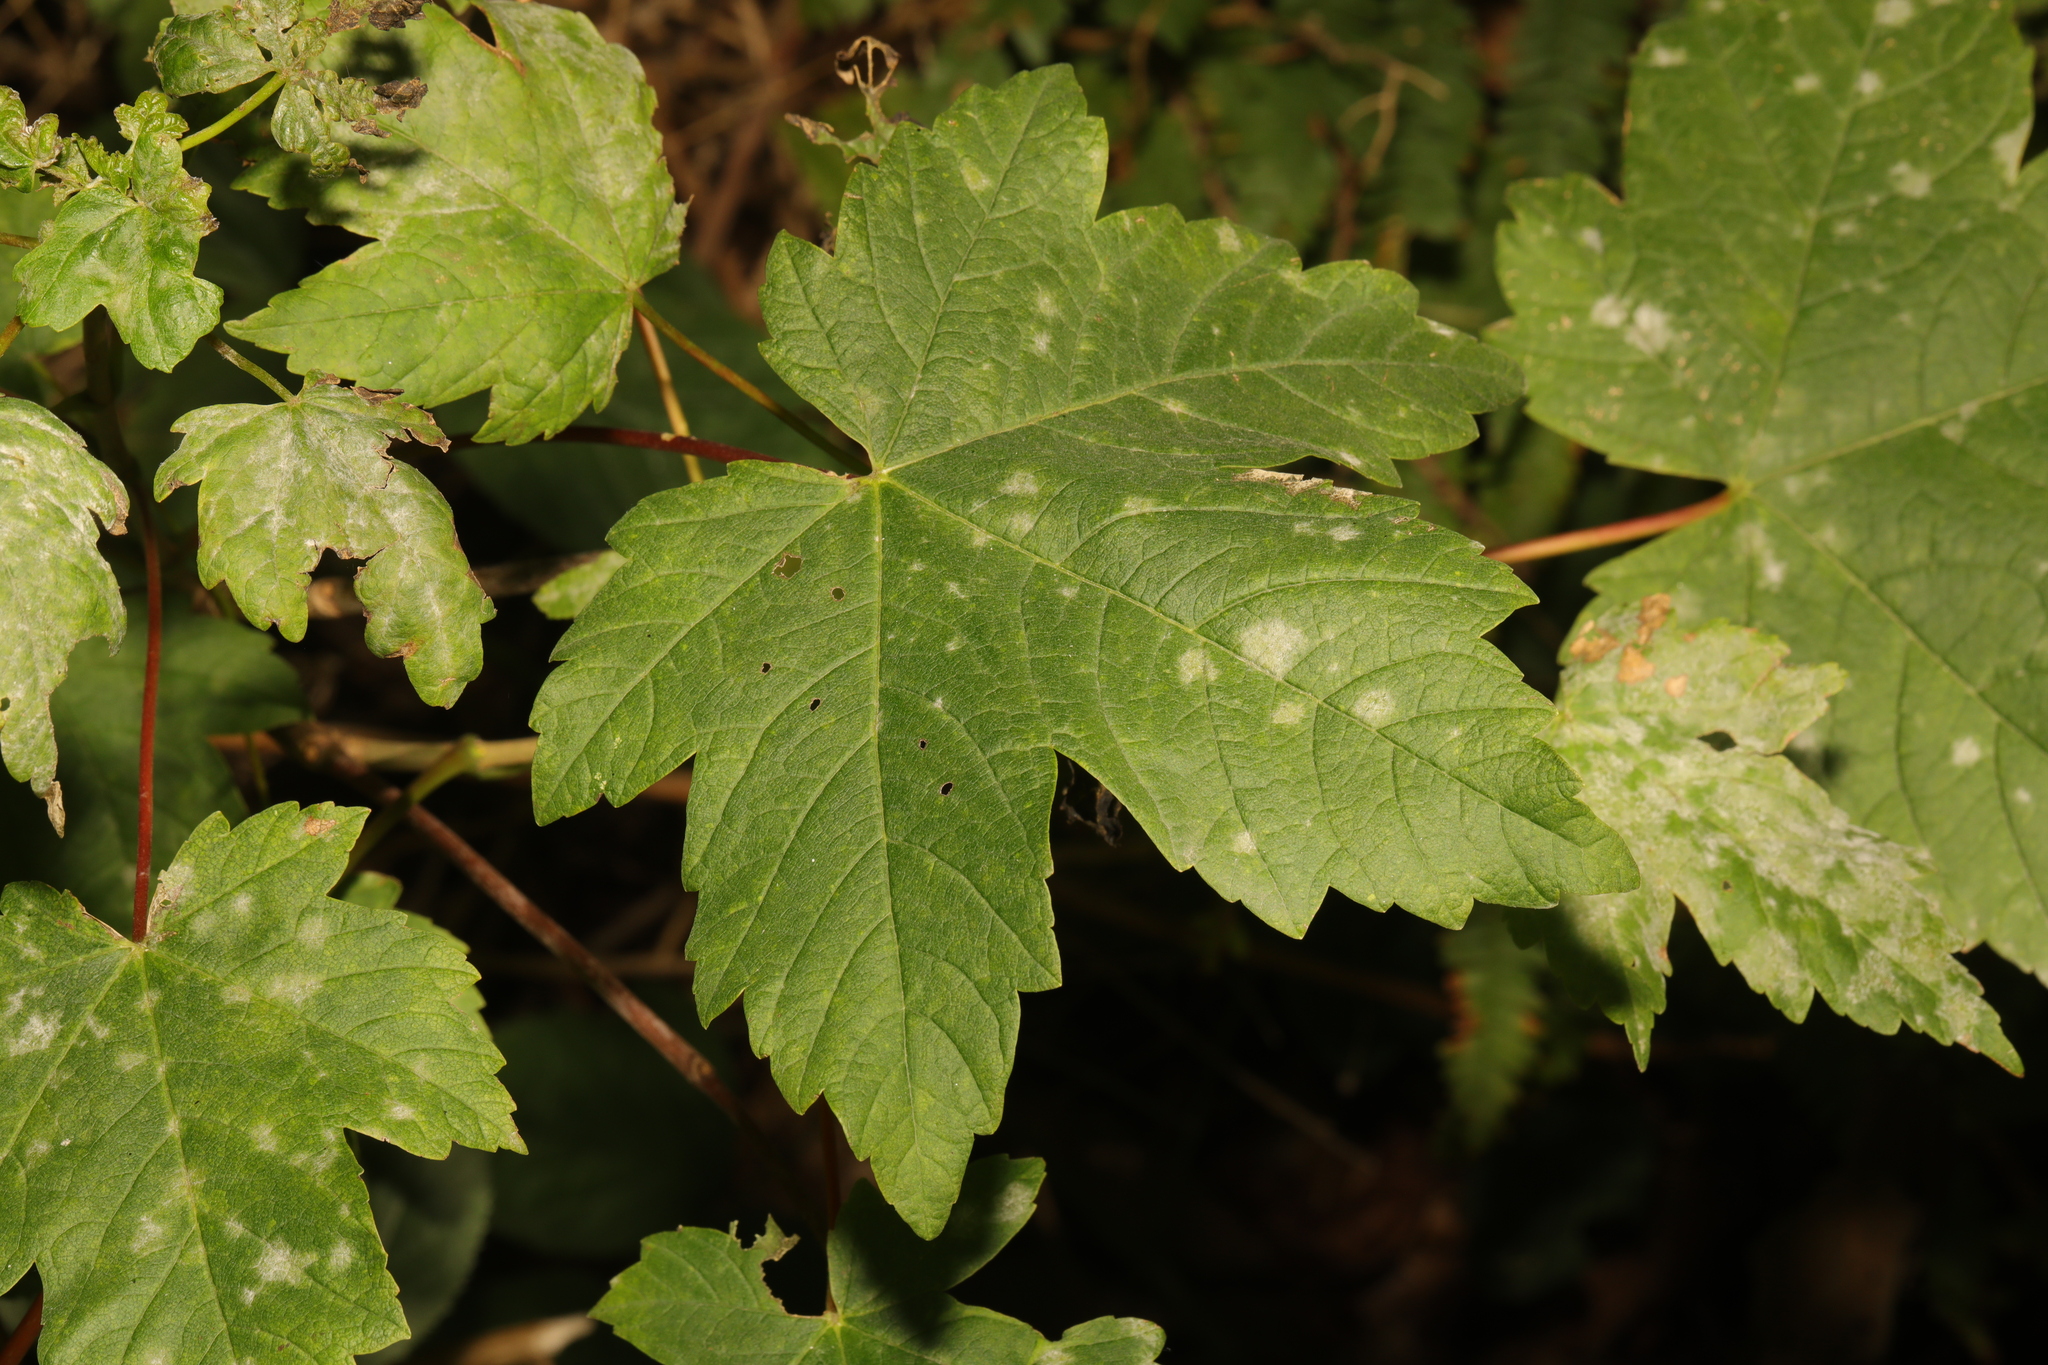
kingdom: Plantae
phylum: Tracheophyta
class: Magnoliopsida
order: Sapindales
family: Sapindaceae
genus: Acer
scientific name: Acer pseudoplatanus
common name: Sycamore
